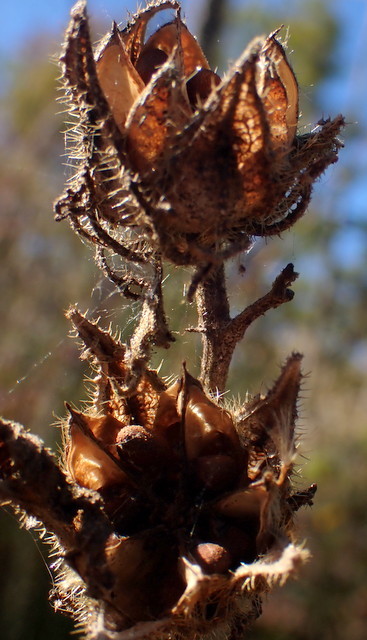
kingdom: Plantae
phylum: Tracheophyta
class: Magnoliopsida
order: Malvales
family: Malvaceae
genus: Hibiscus
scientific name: Hibiscus aculeatus
